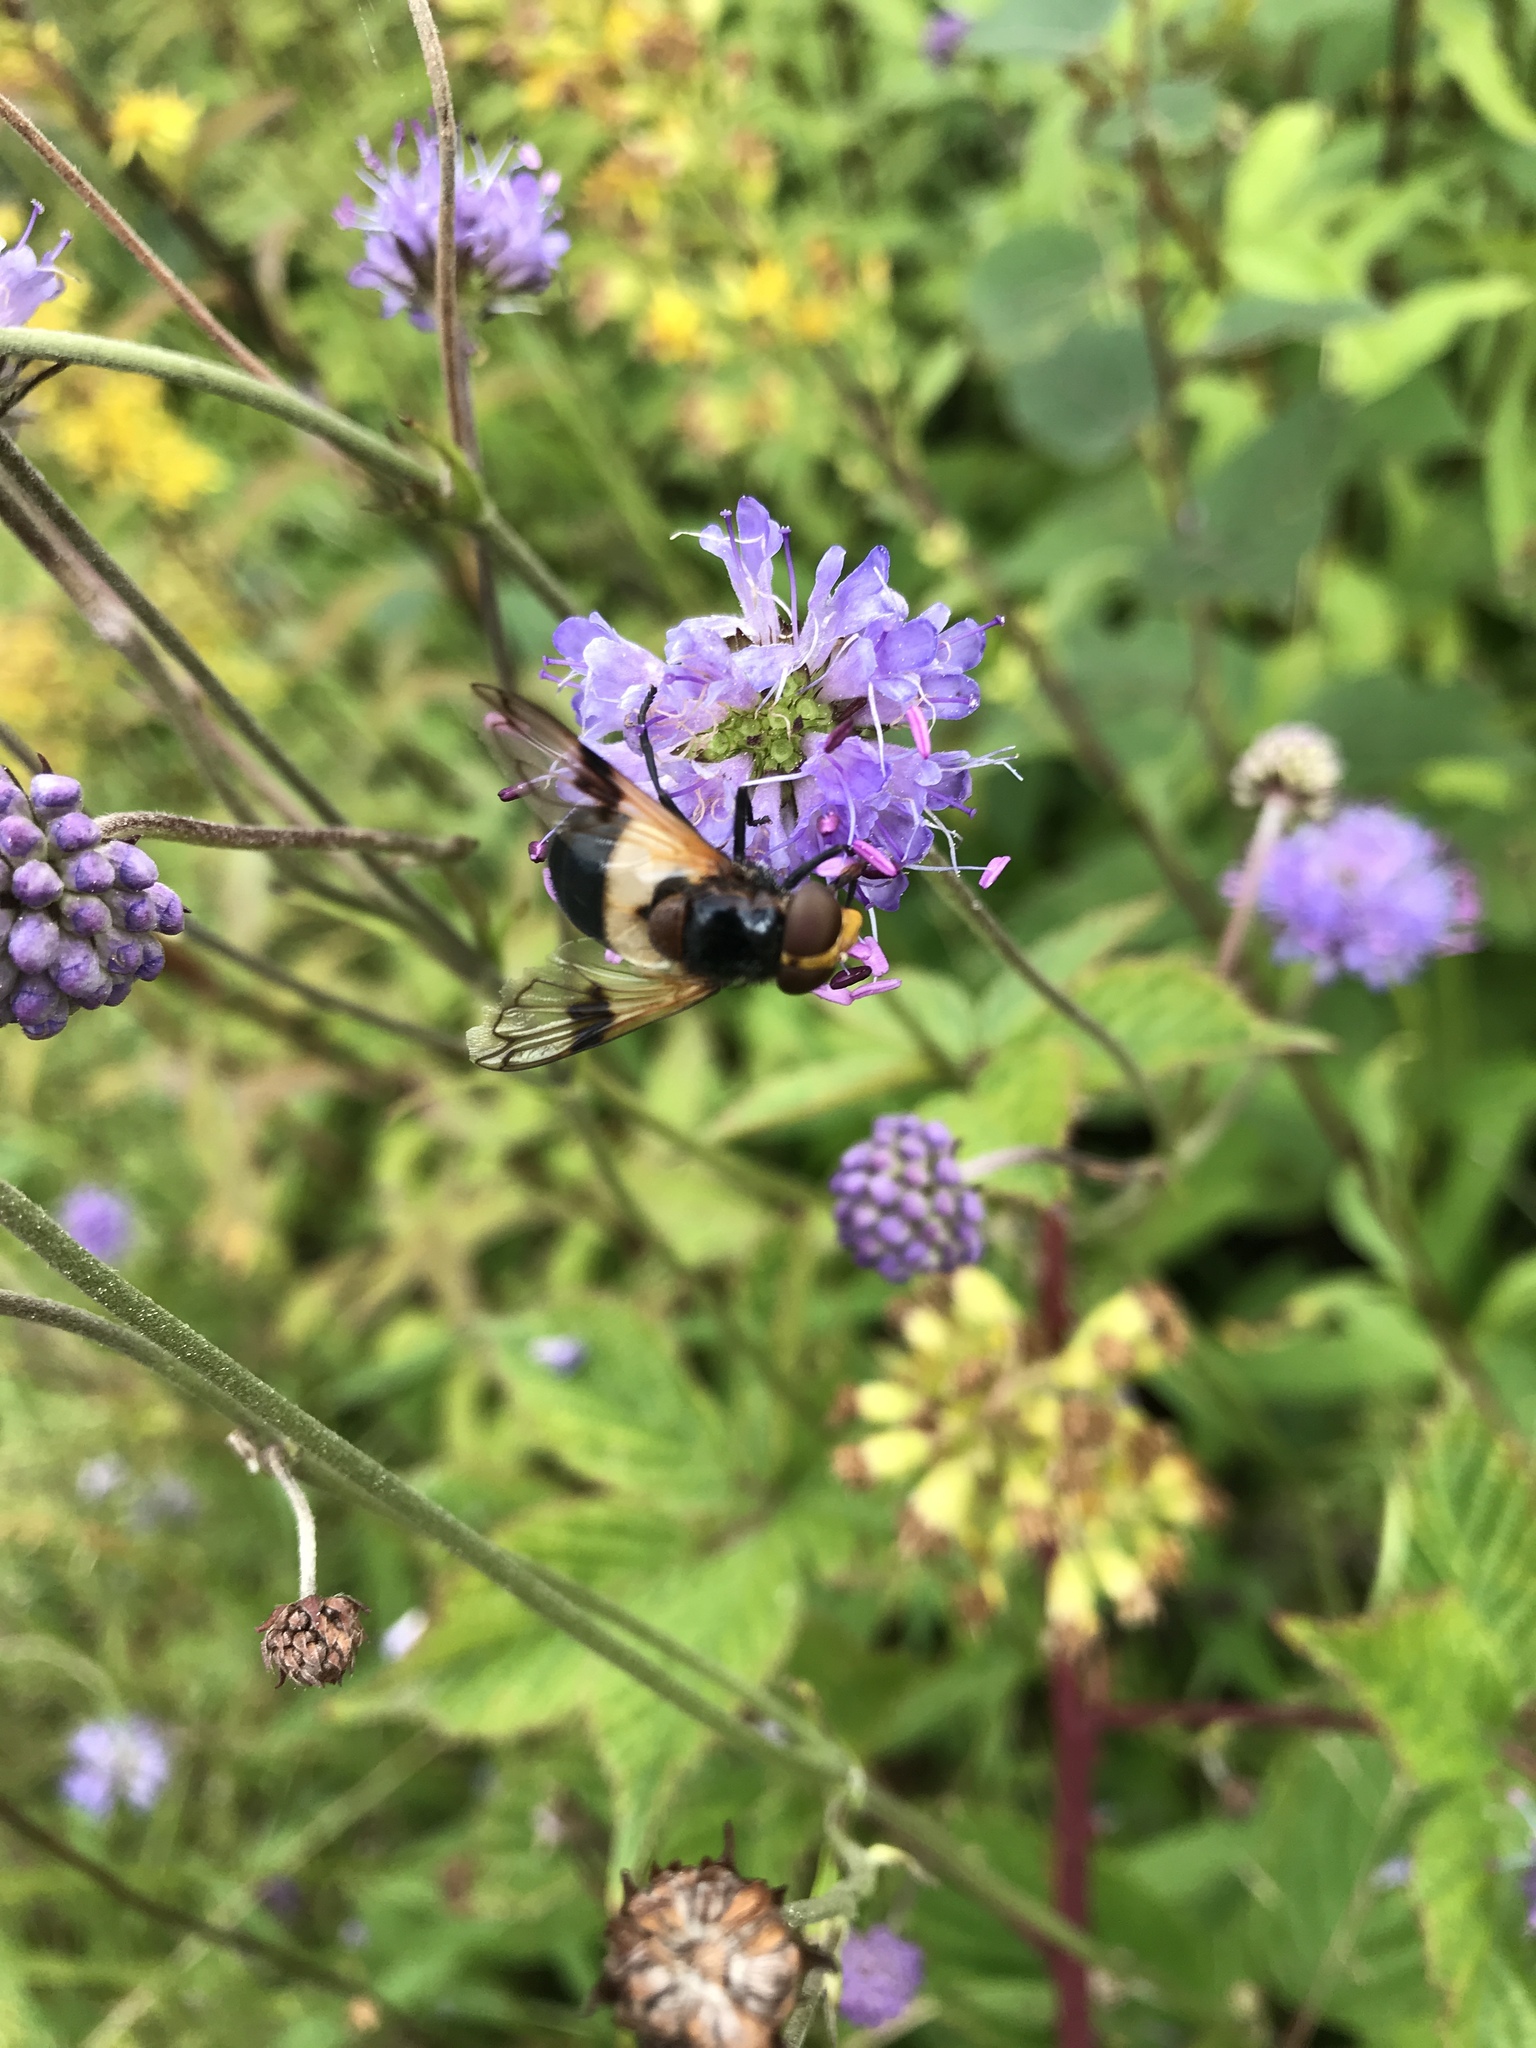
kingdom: Animalia
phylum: Arthropoda
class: Insecta
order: Diptera
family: Syrphidae
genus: Volucella
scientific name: Volucella pellucens
